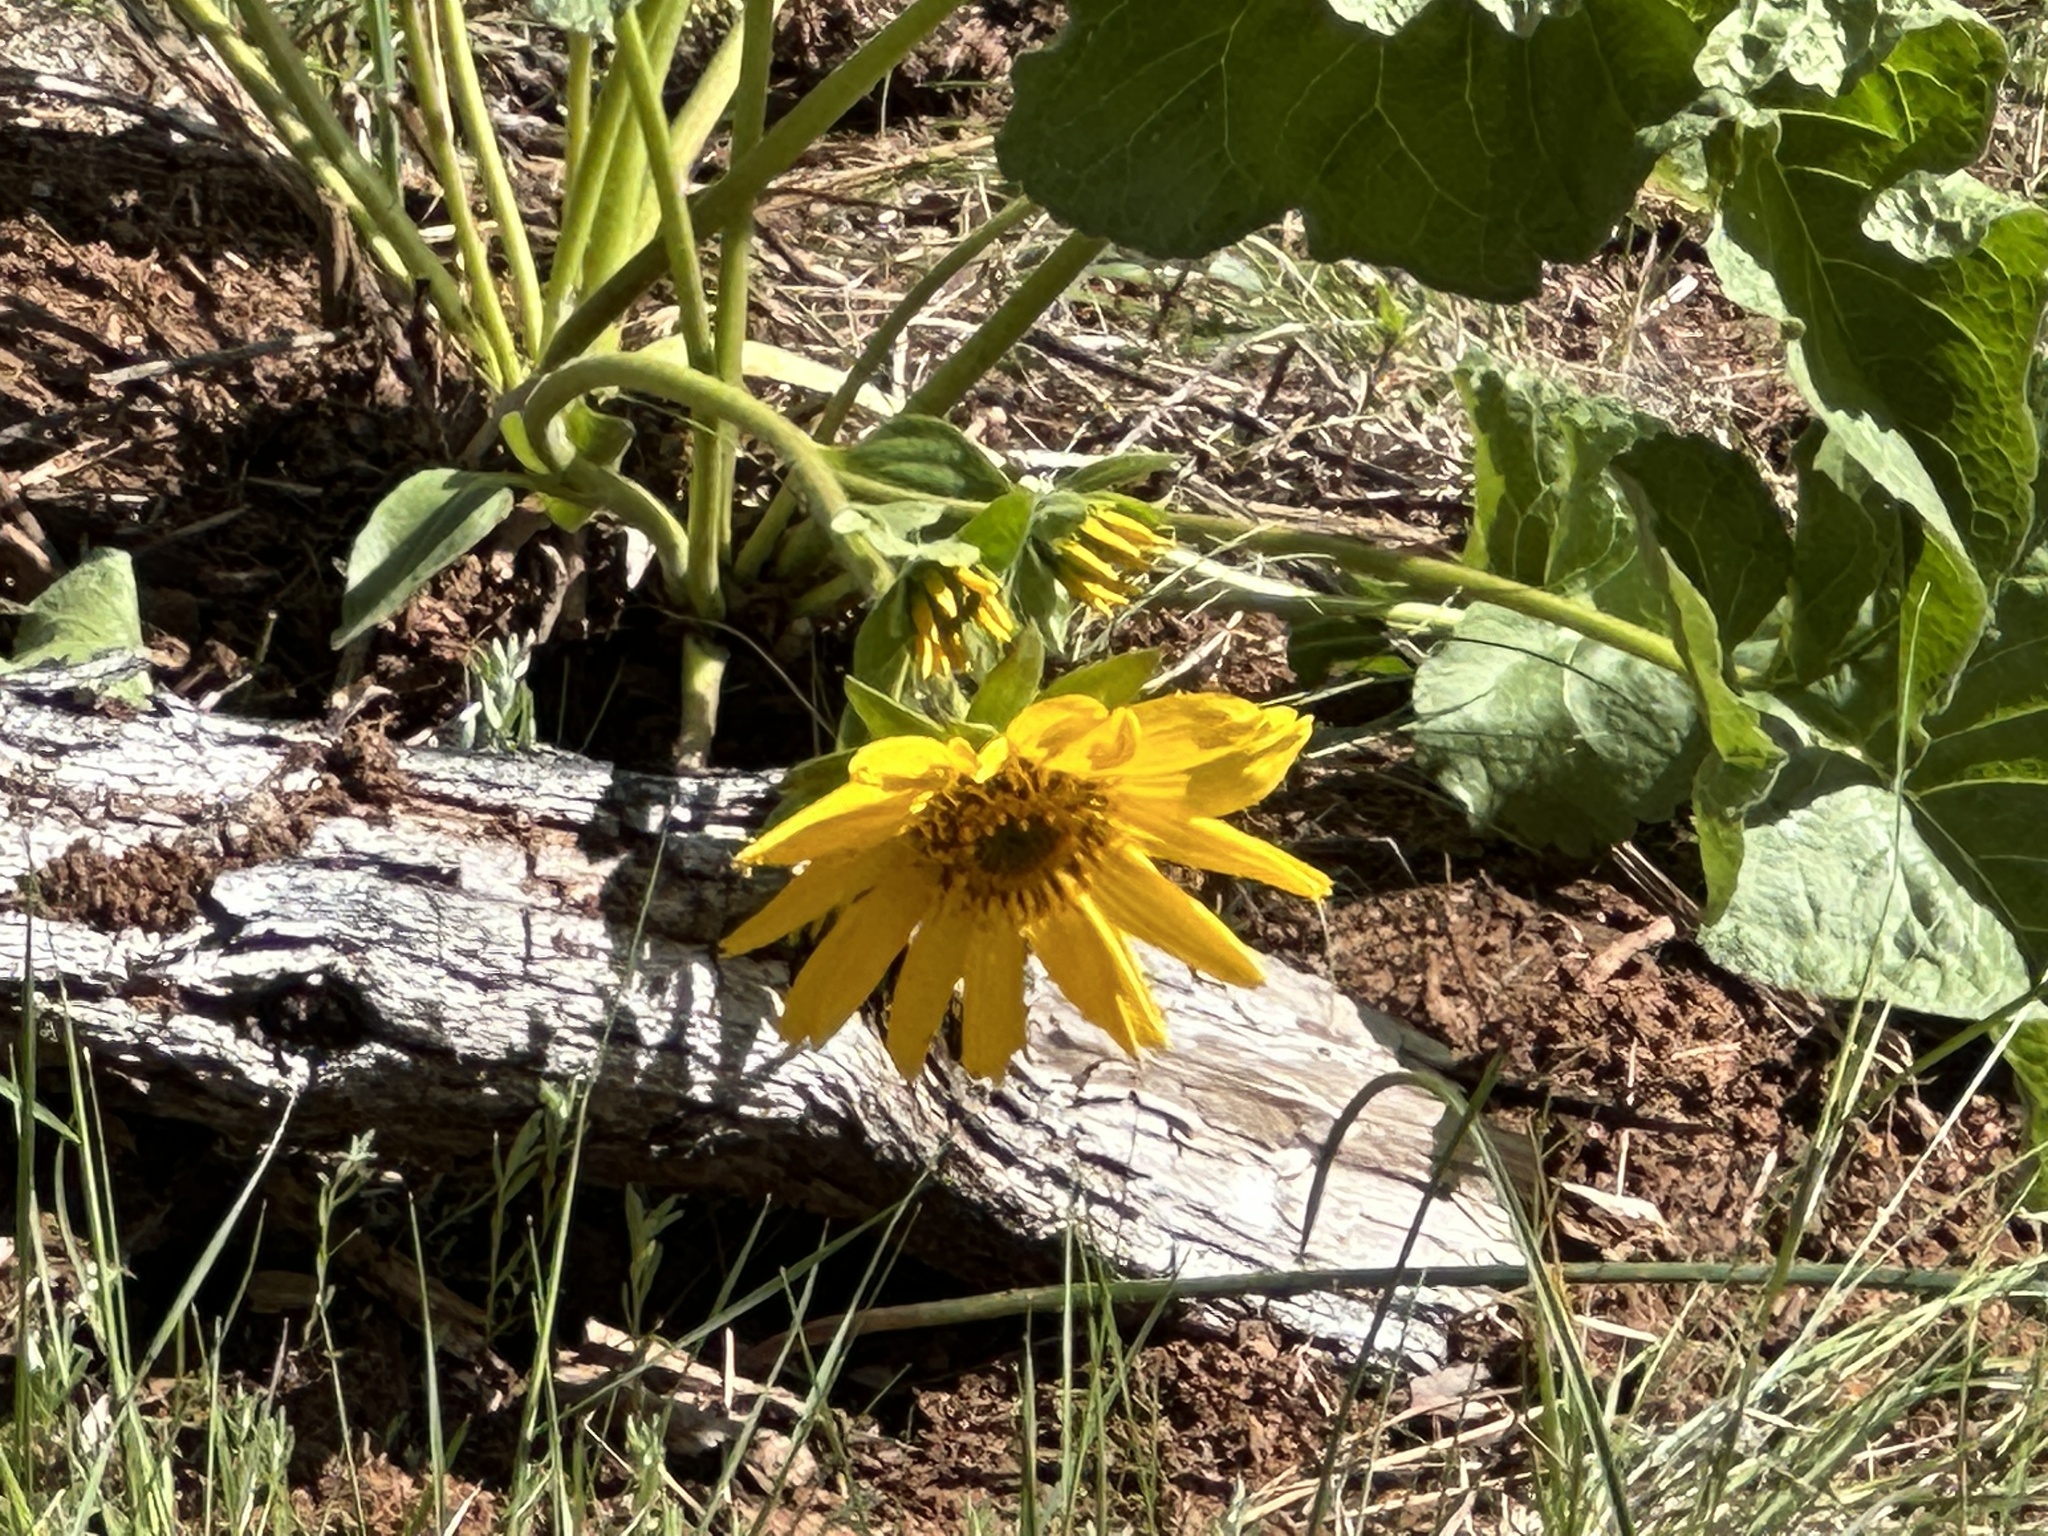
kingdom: Plantae
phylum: Tracheophyta
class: Magnoliopsida
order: Asterales
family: Asteraceae
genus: Balsamorhiza
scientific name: Balsamorhiza deltoidea
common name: Deltoid balsamroot
